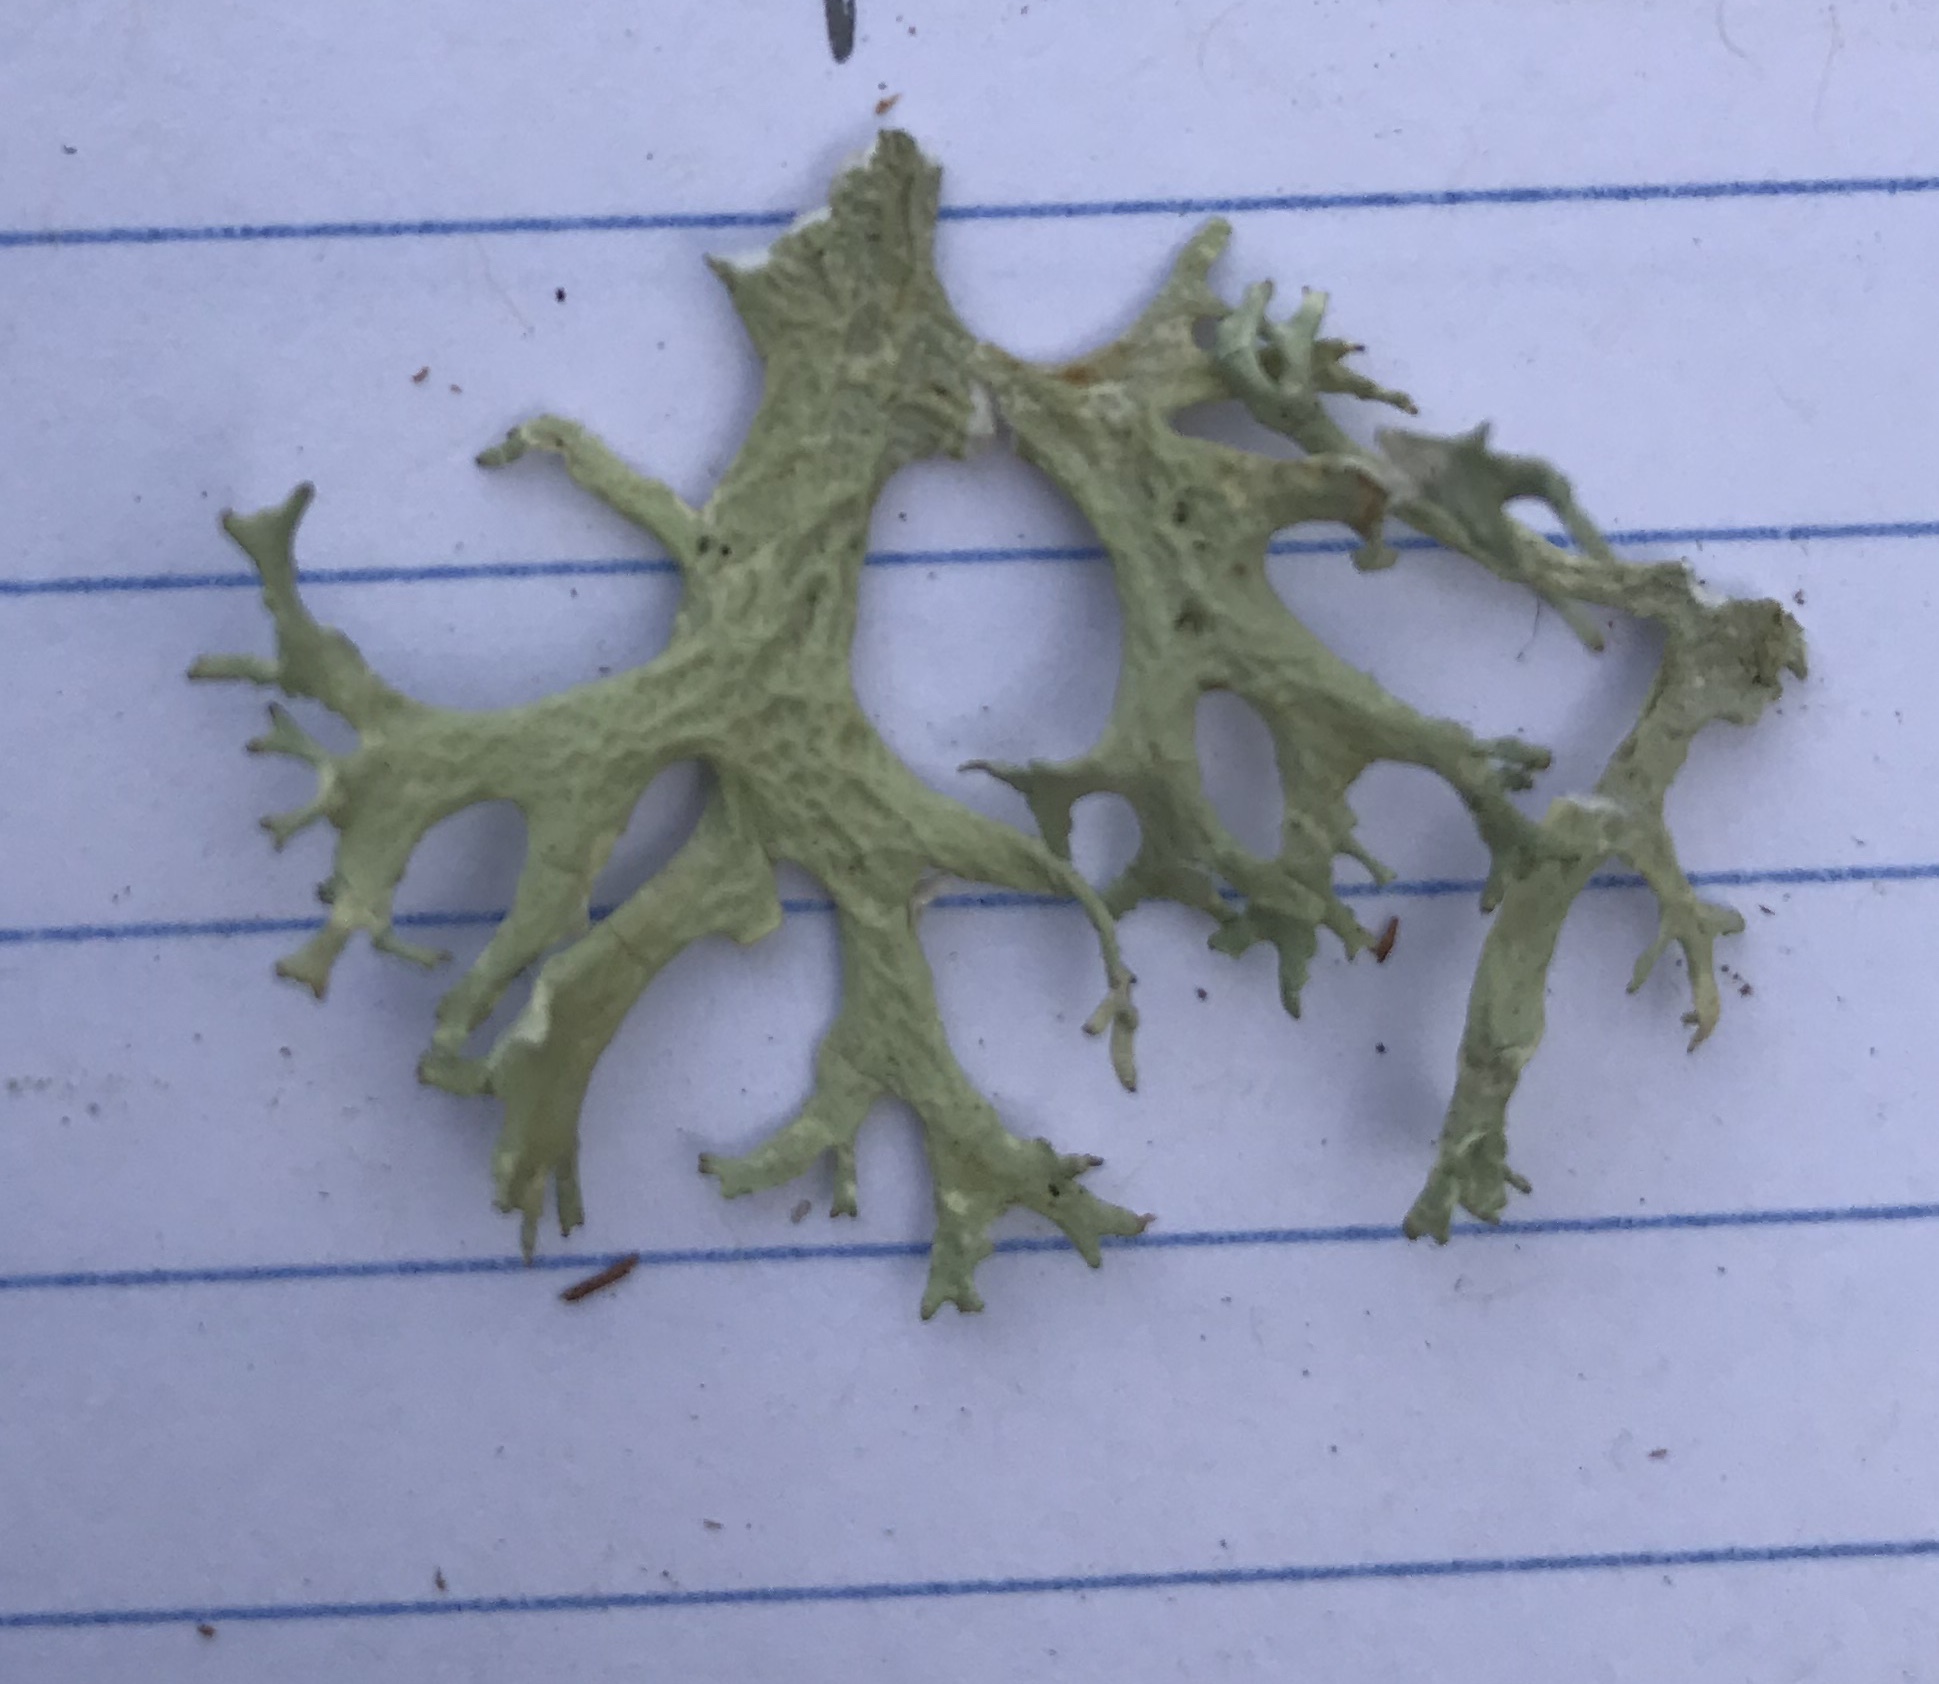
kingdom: Fungi
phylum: Ascomycota
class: Lecanoromycetes
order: Lecanorales
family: Parmeliaceae
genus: Evernia
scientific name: Evernia prunastri
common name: Oak moss
